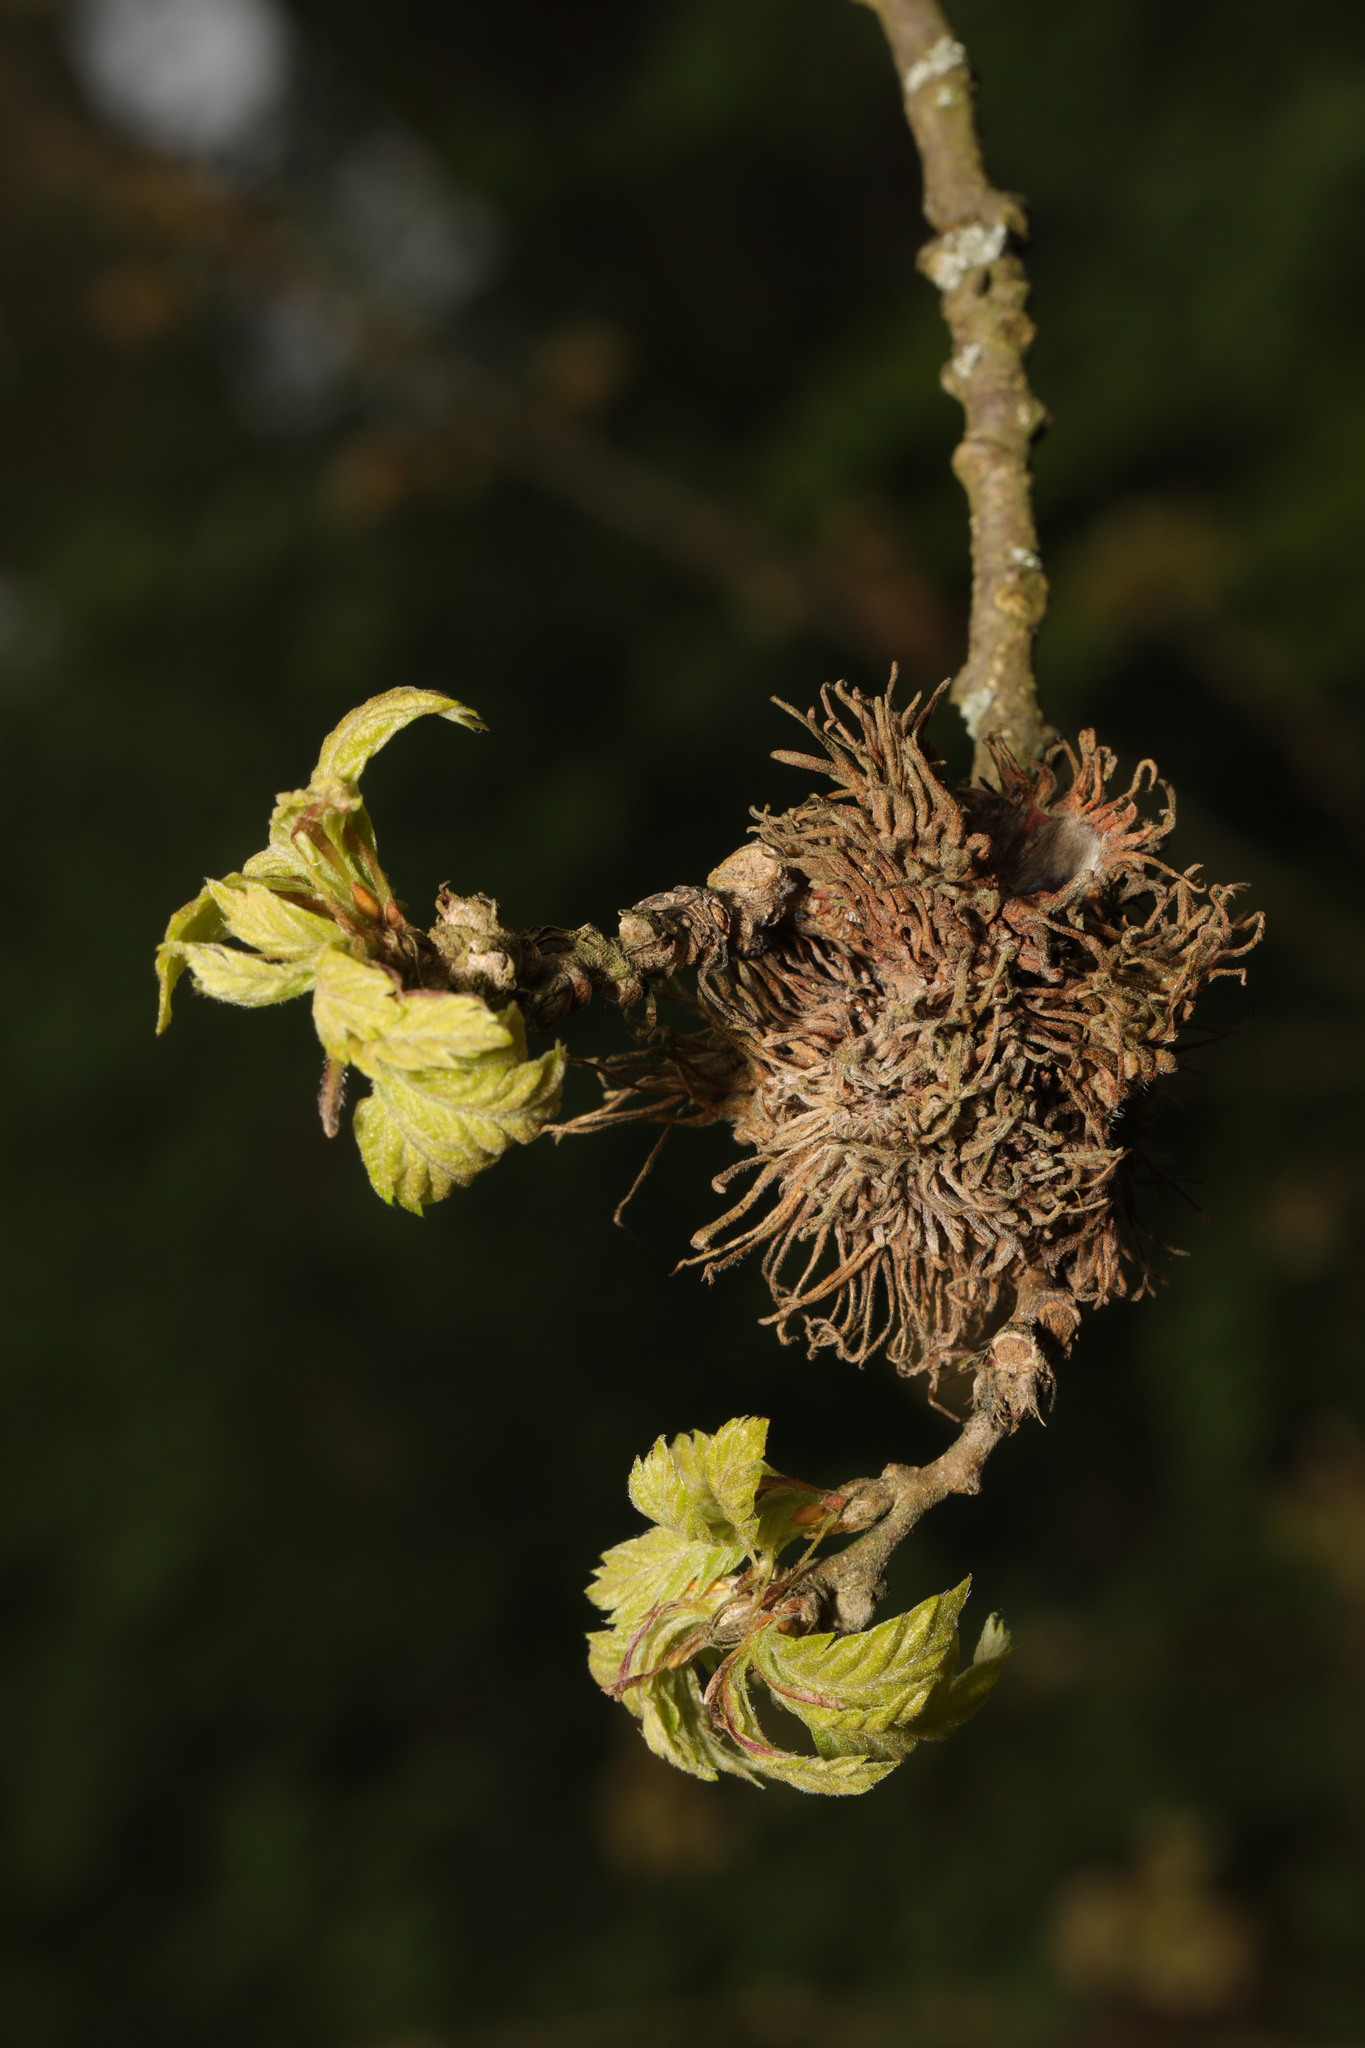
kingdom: Plantae
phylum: Tracheophyta
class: Magnoliopsida
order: Fagales
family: Fagaceae
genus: Quercus
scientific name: Quercus cerris
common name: Turkey oak
